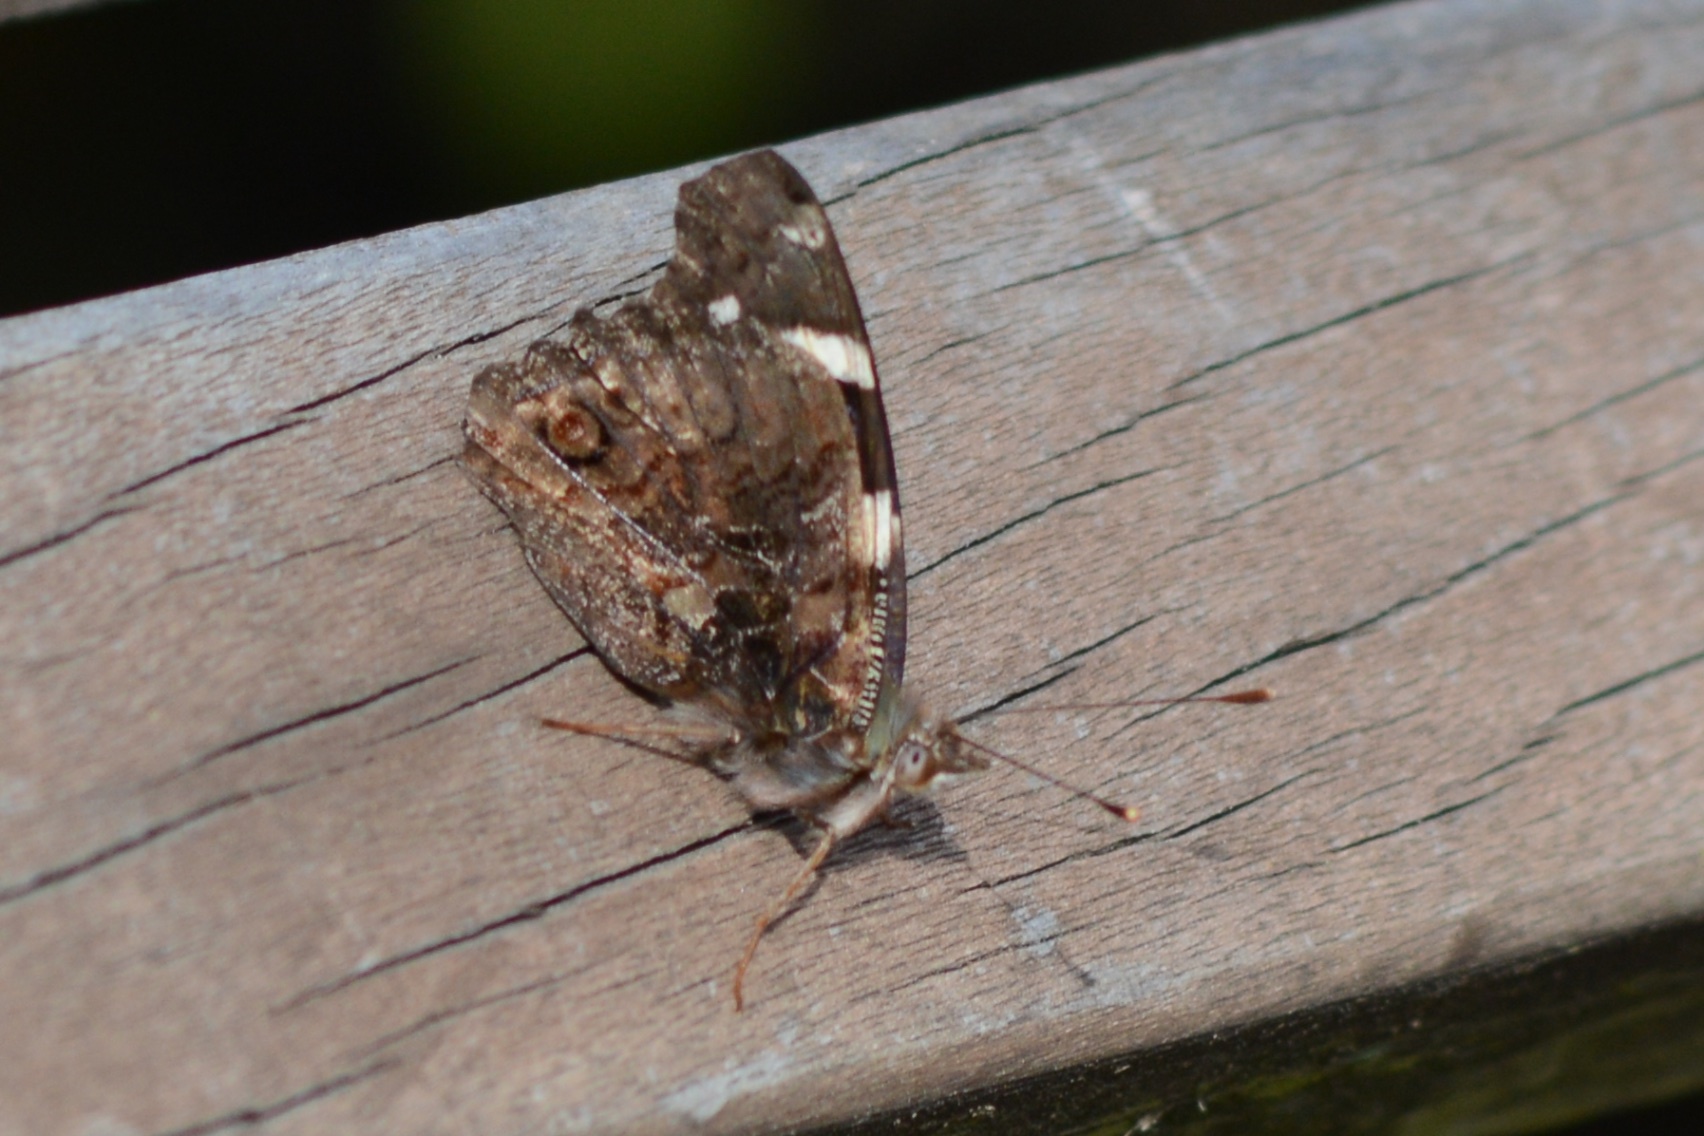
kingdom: Animalia
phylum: Arthropoda
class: Insecta
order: Lepidoptera
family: Nymphalidae
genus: Vanessa
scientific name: Vanessa itea
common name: Yellow admiral
